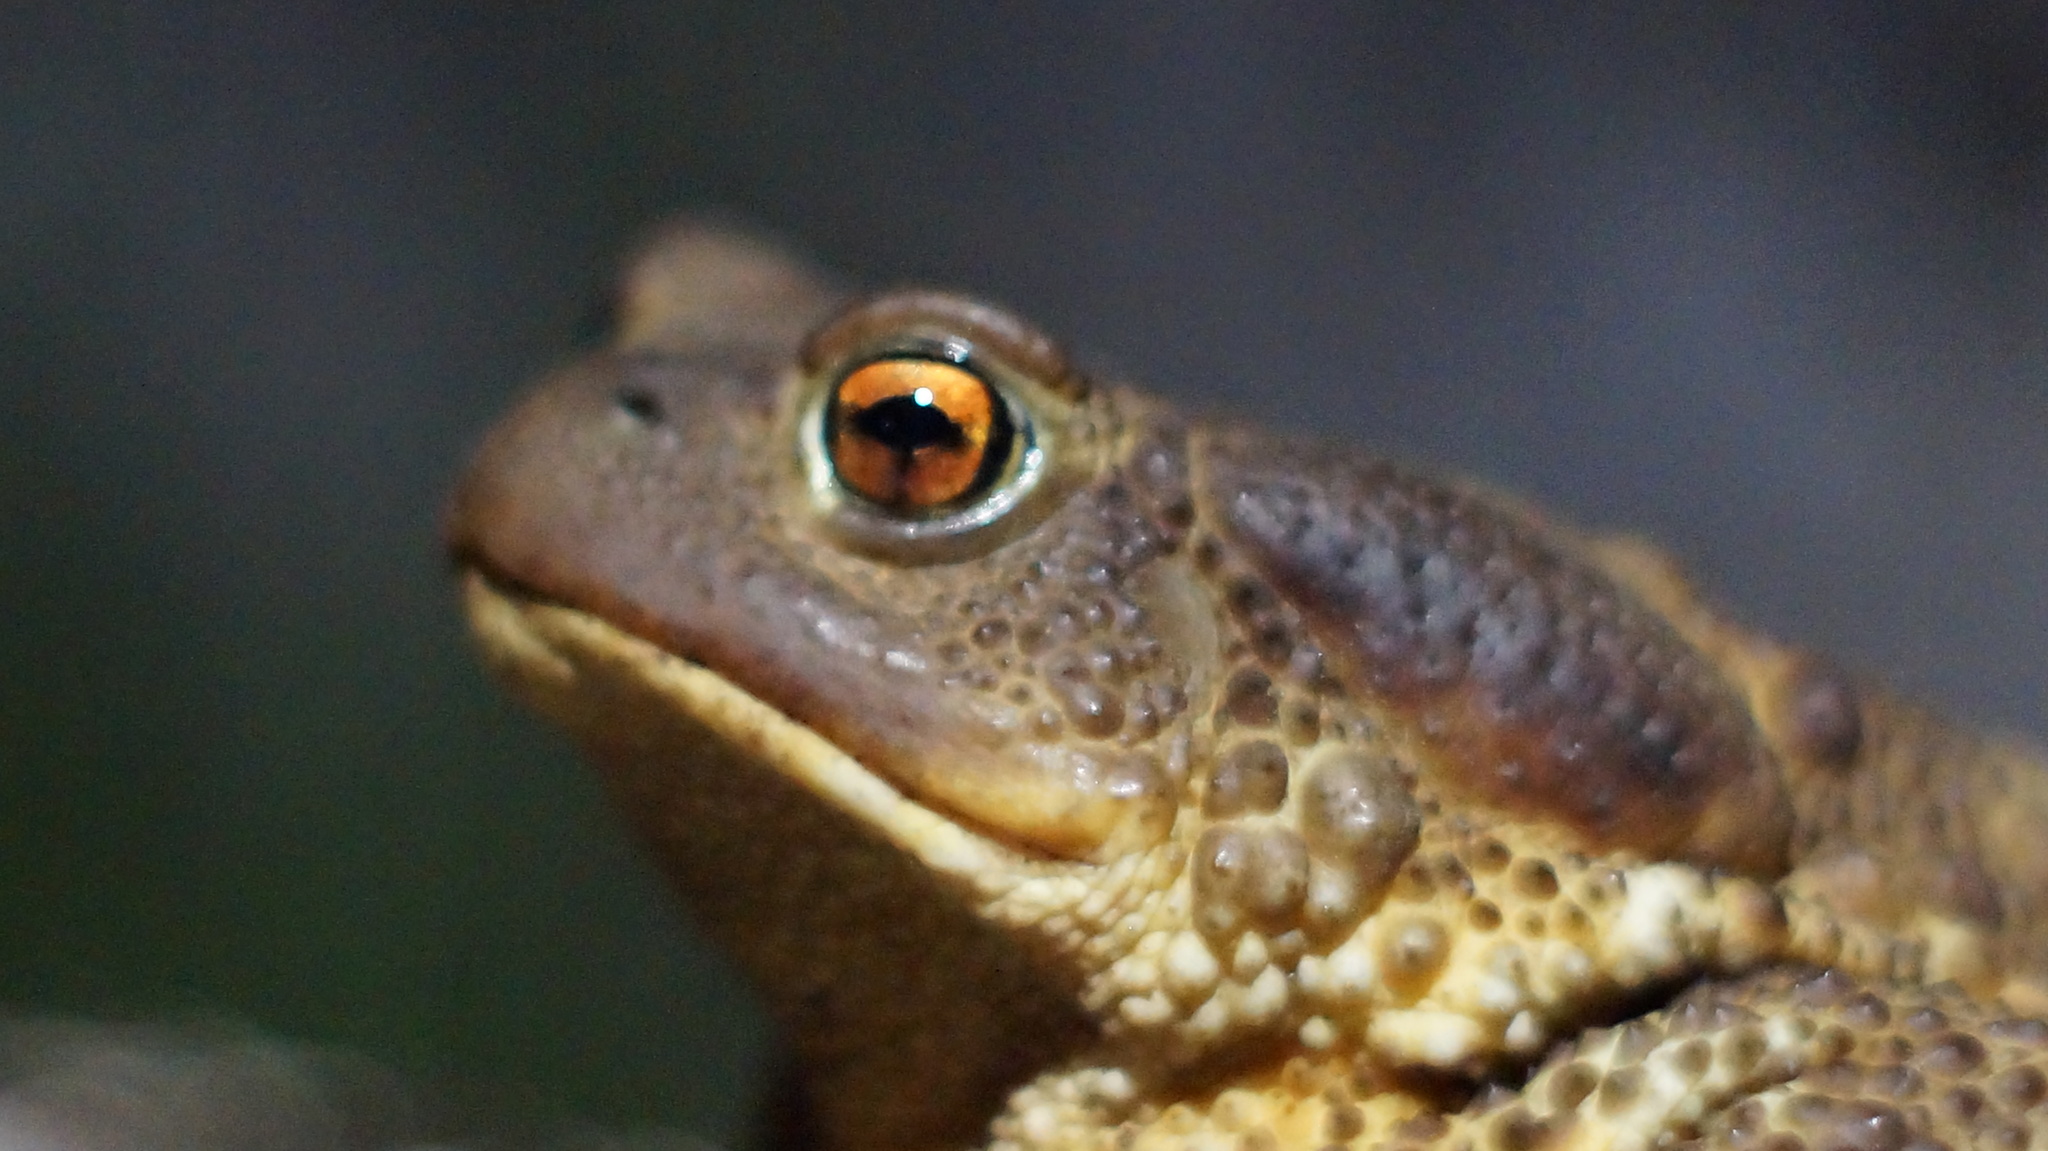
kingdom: Animalia
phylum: Chordata
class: Amphibia
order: Anura
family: Bufonidae
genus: Bufo
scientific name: Bufo bufo
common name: Common toad
